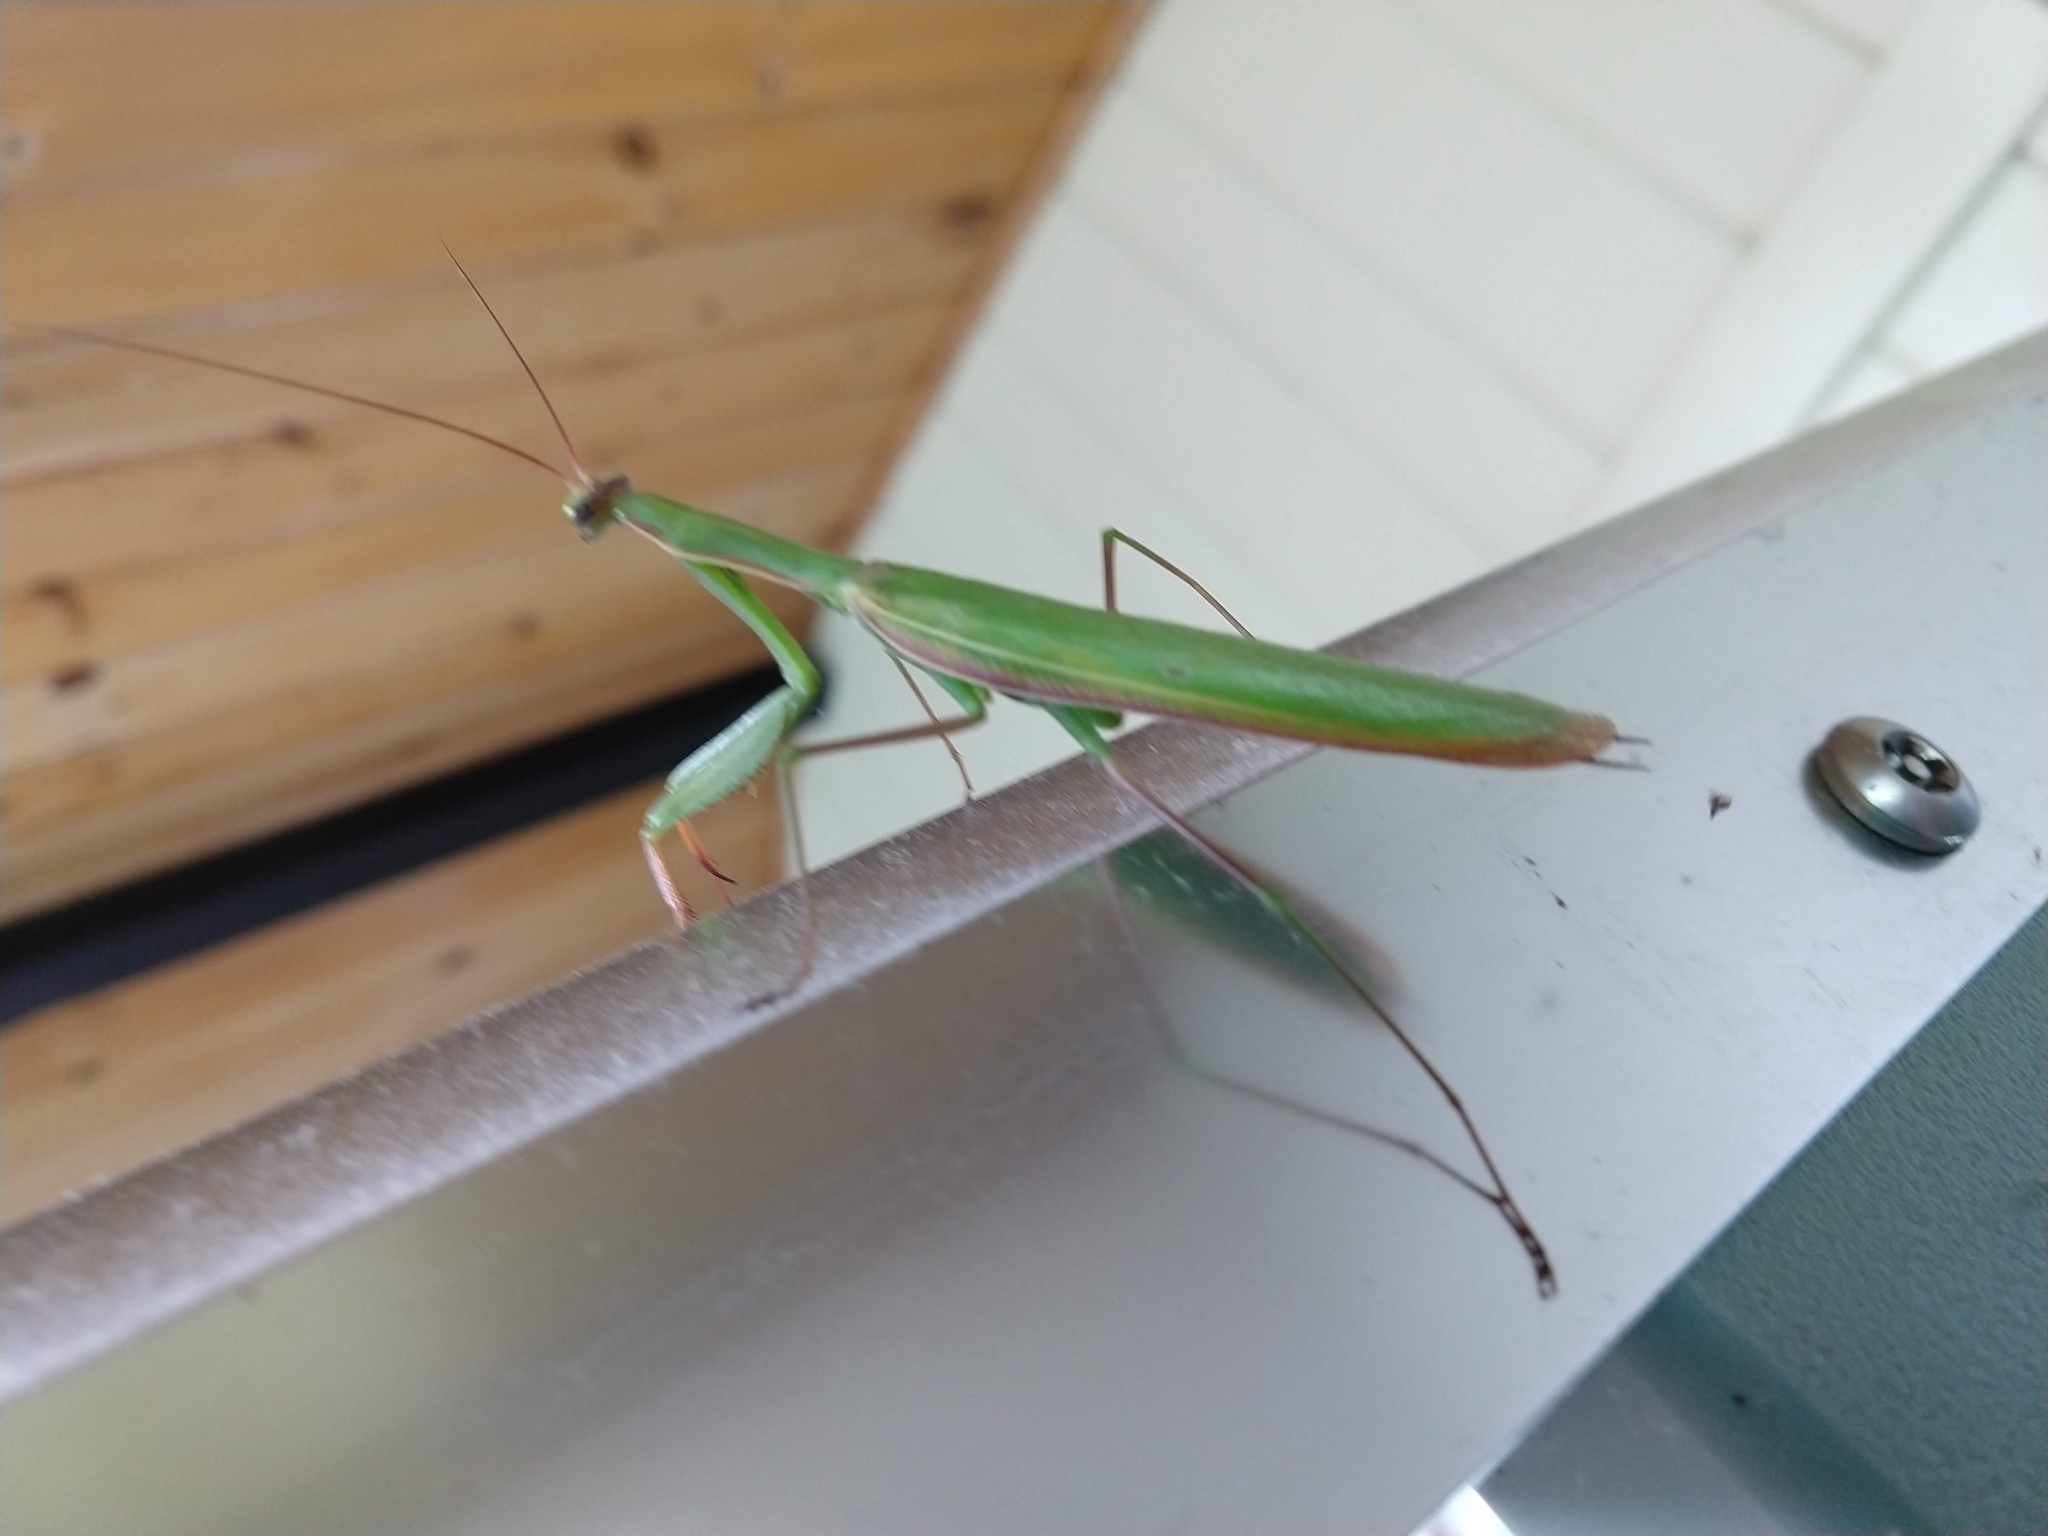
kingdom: Animalia
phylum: Arthropoda
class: Insecta
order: Mantodea
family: Mantidae
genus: Mantis
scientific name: Mantis religiosa
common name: Praying mantis
